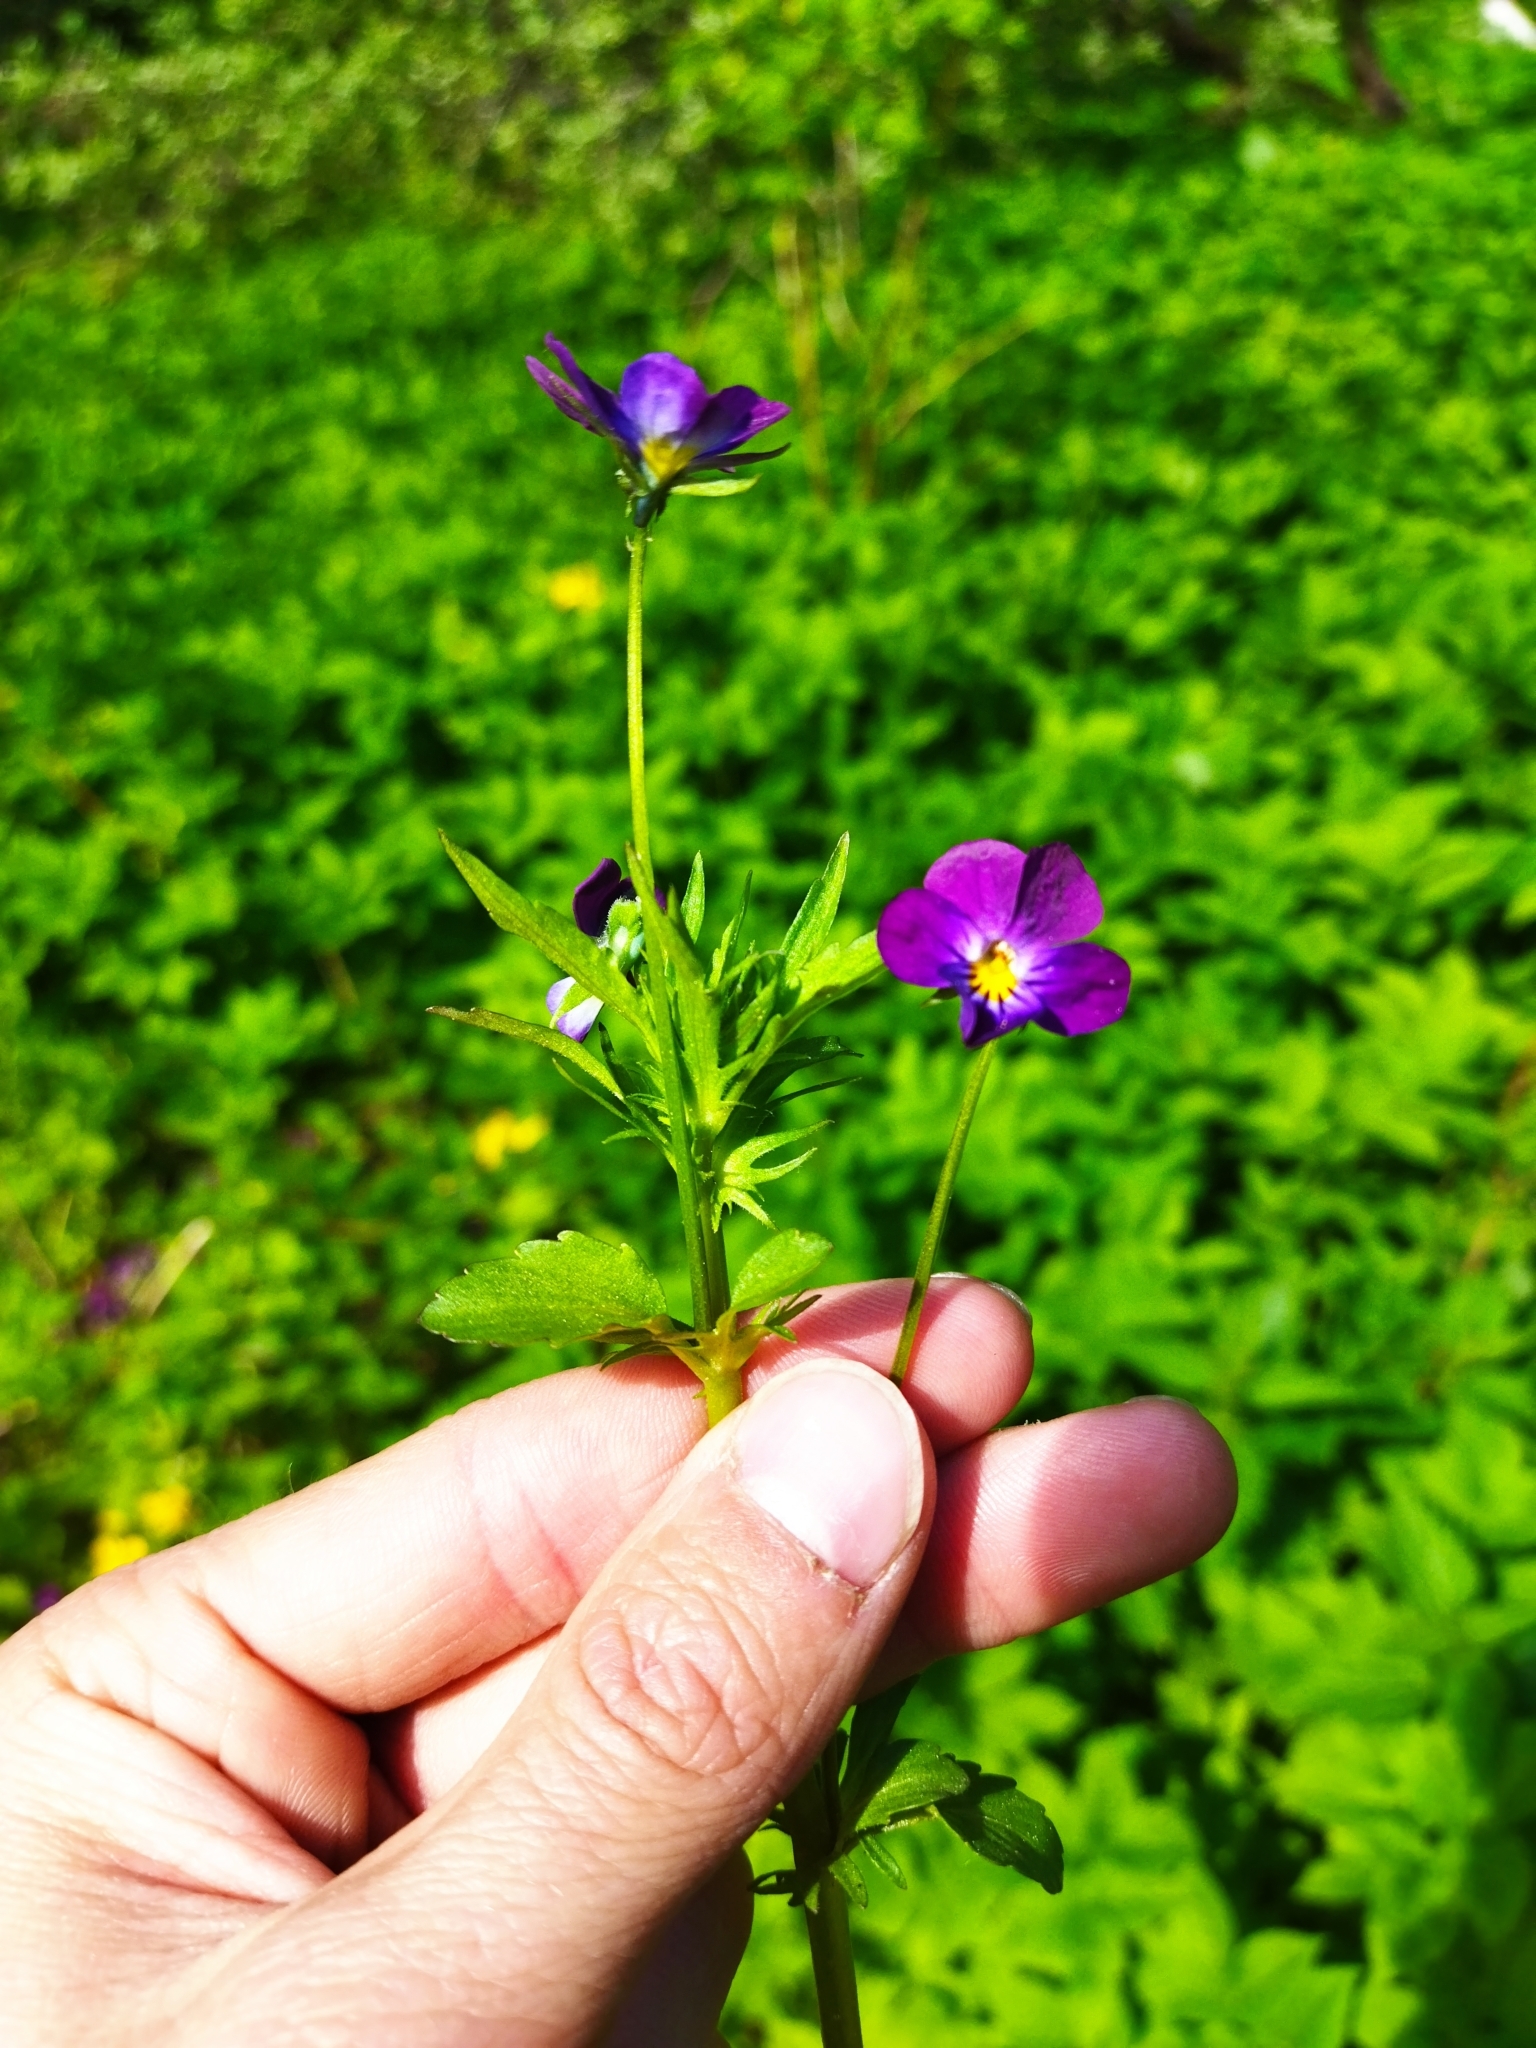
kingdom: Plantae
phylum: Tracheophyta
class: Magnoliopsida
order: Malpighiales
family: Violaceae
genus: Viola
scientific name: Viola wittrockiana
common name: Garden pansy
